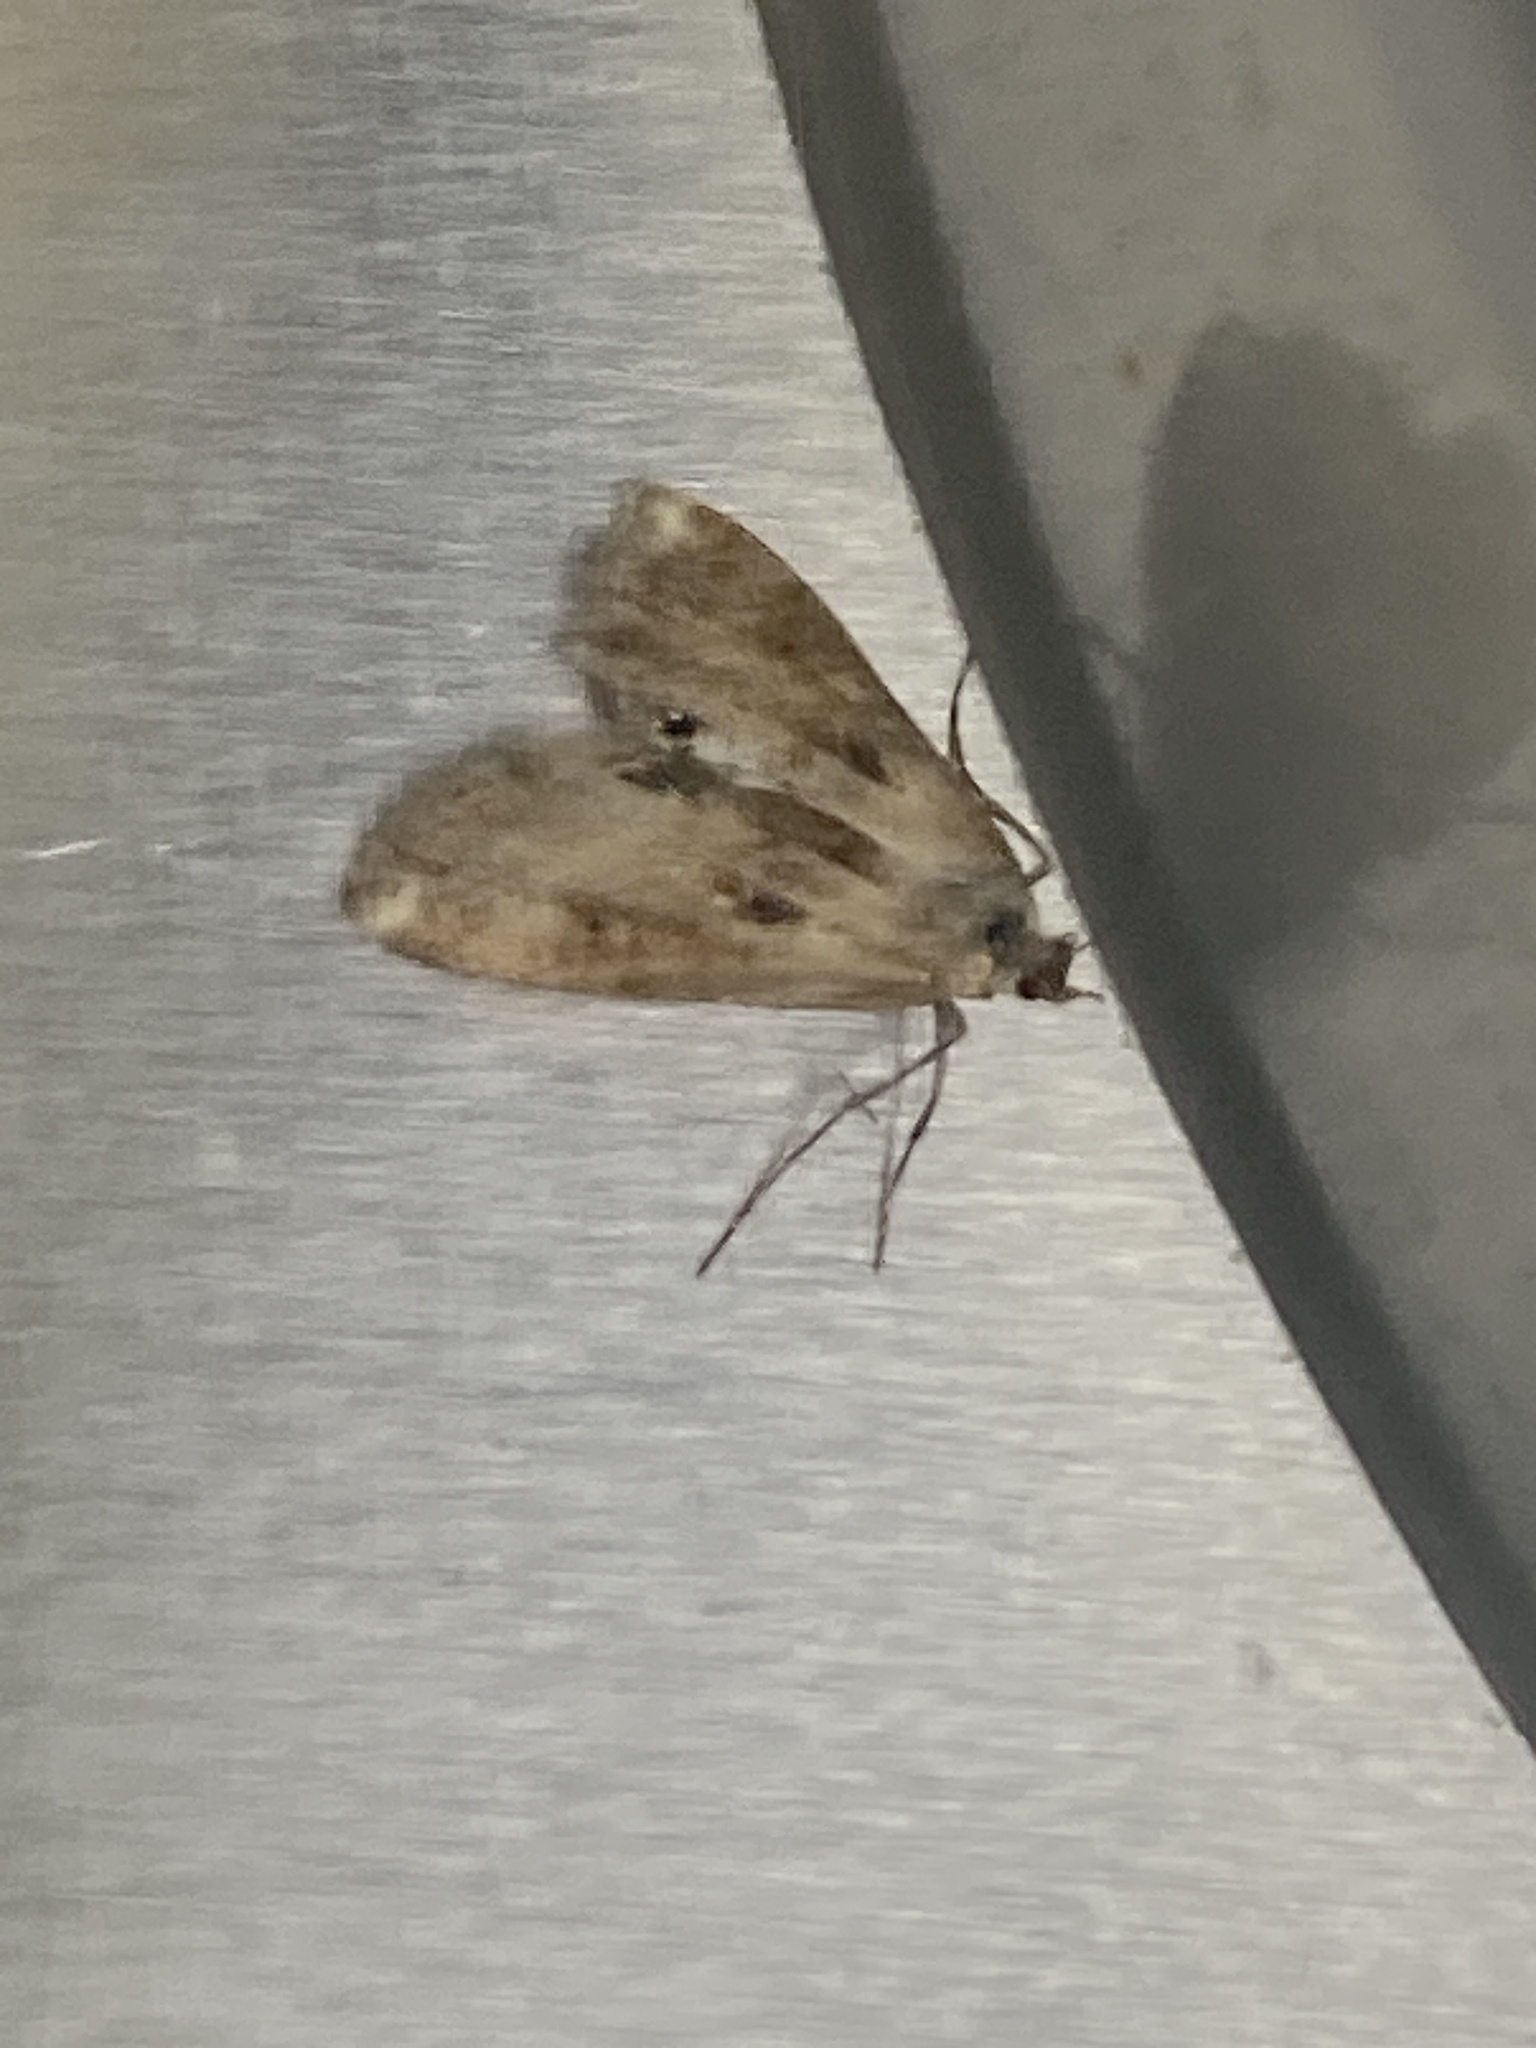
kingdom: Animalia
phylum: Arthropoda
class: Insecta
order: Lepidoptera
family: Crambidae
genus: Cataclysta
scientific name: Cataclysta lemnata
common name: Small china-mark
